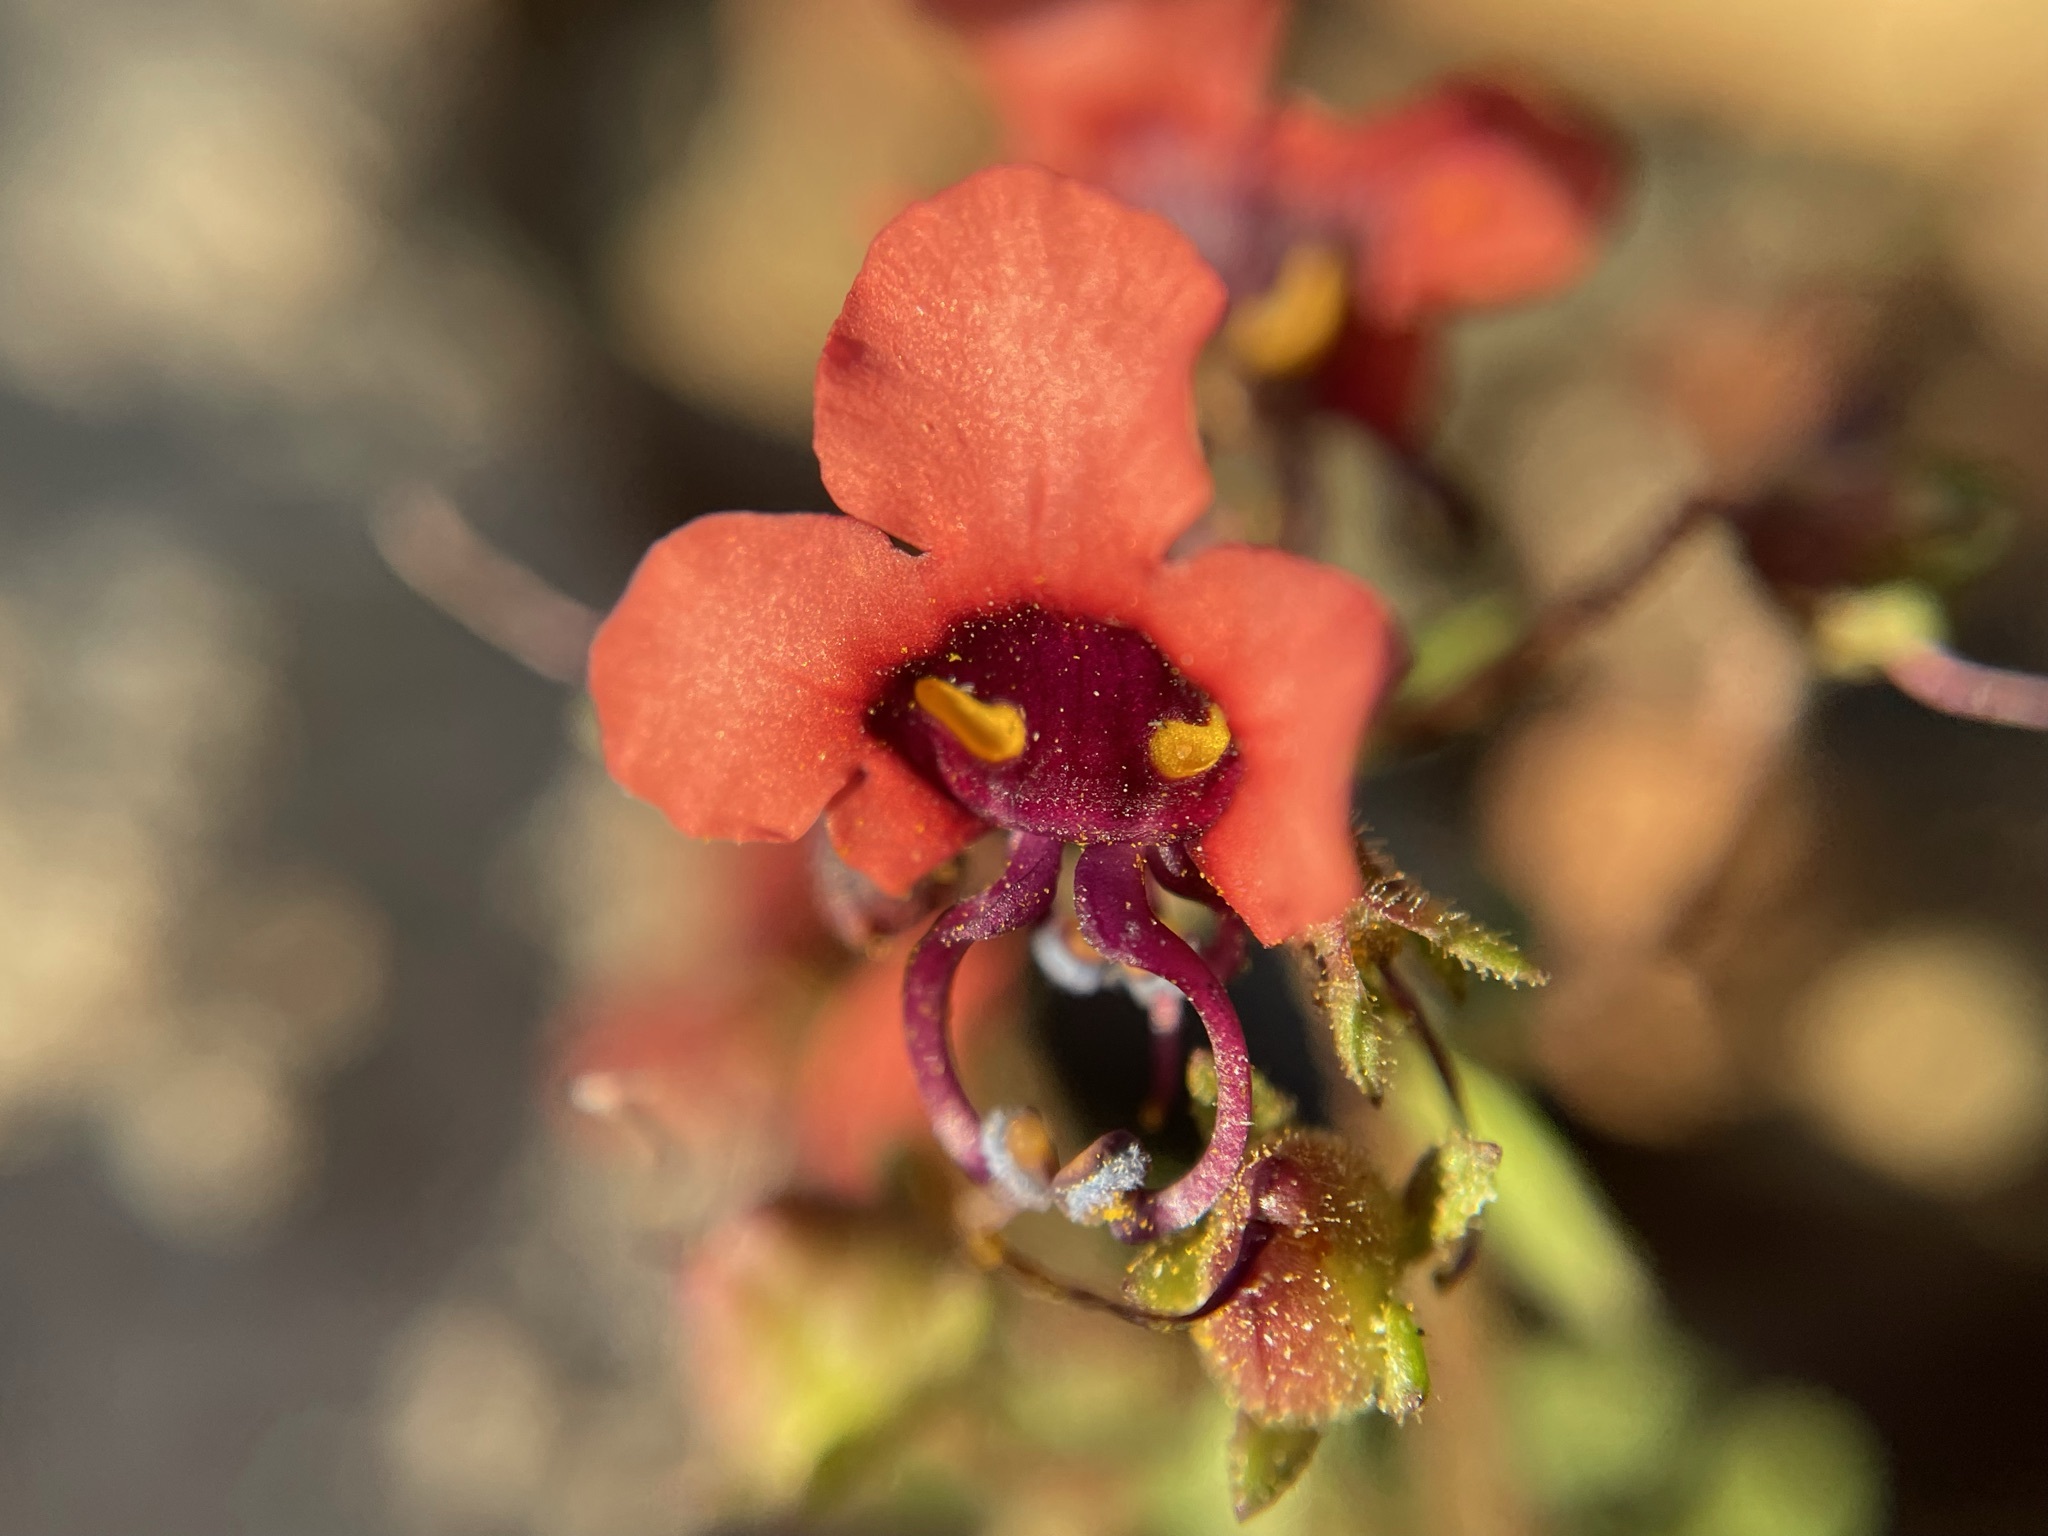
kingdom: Plantae
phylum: Tracheophyta
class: Magnoliopsida
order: Lamiales
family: Scrophulariaceae
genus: Alonsoa
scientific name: Alonsoa unilabiata
